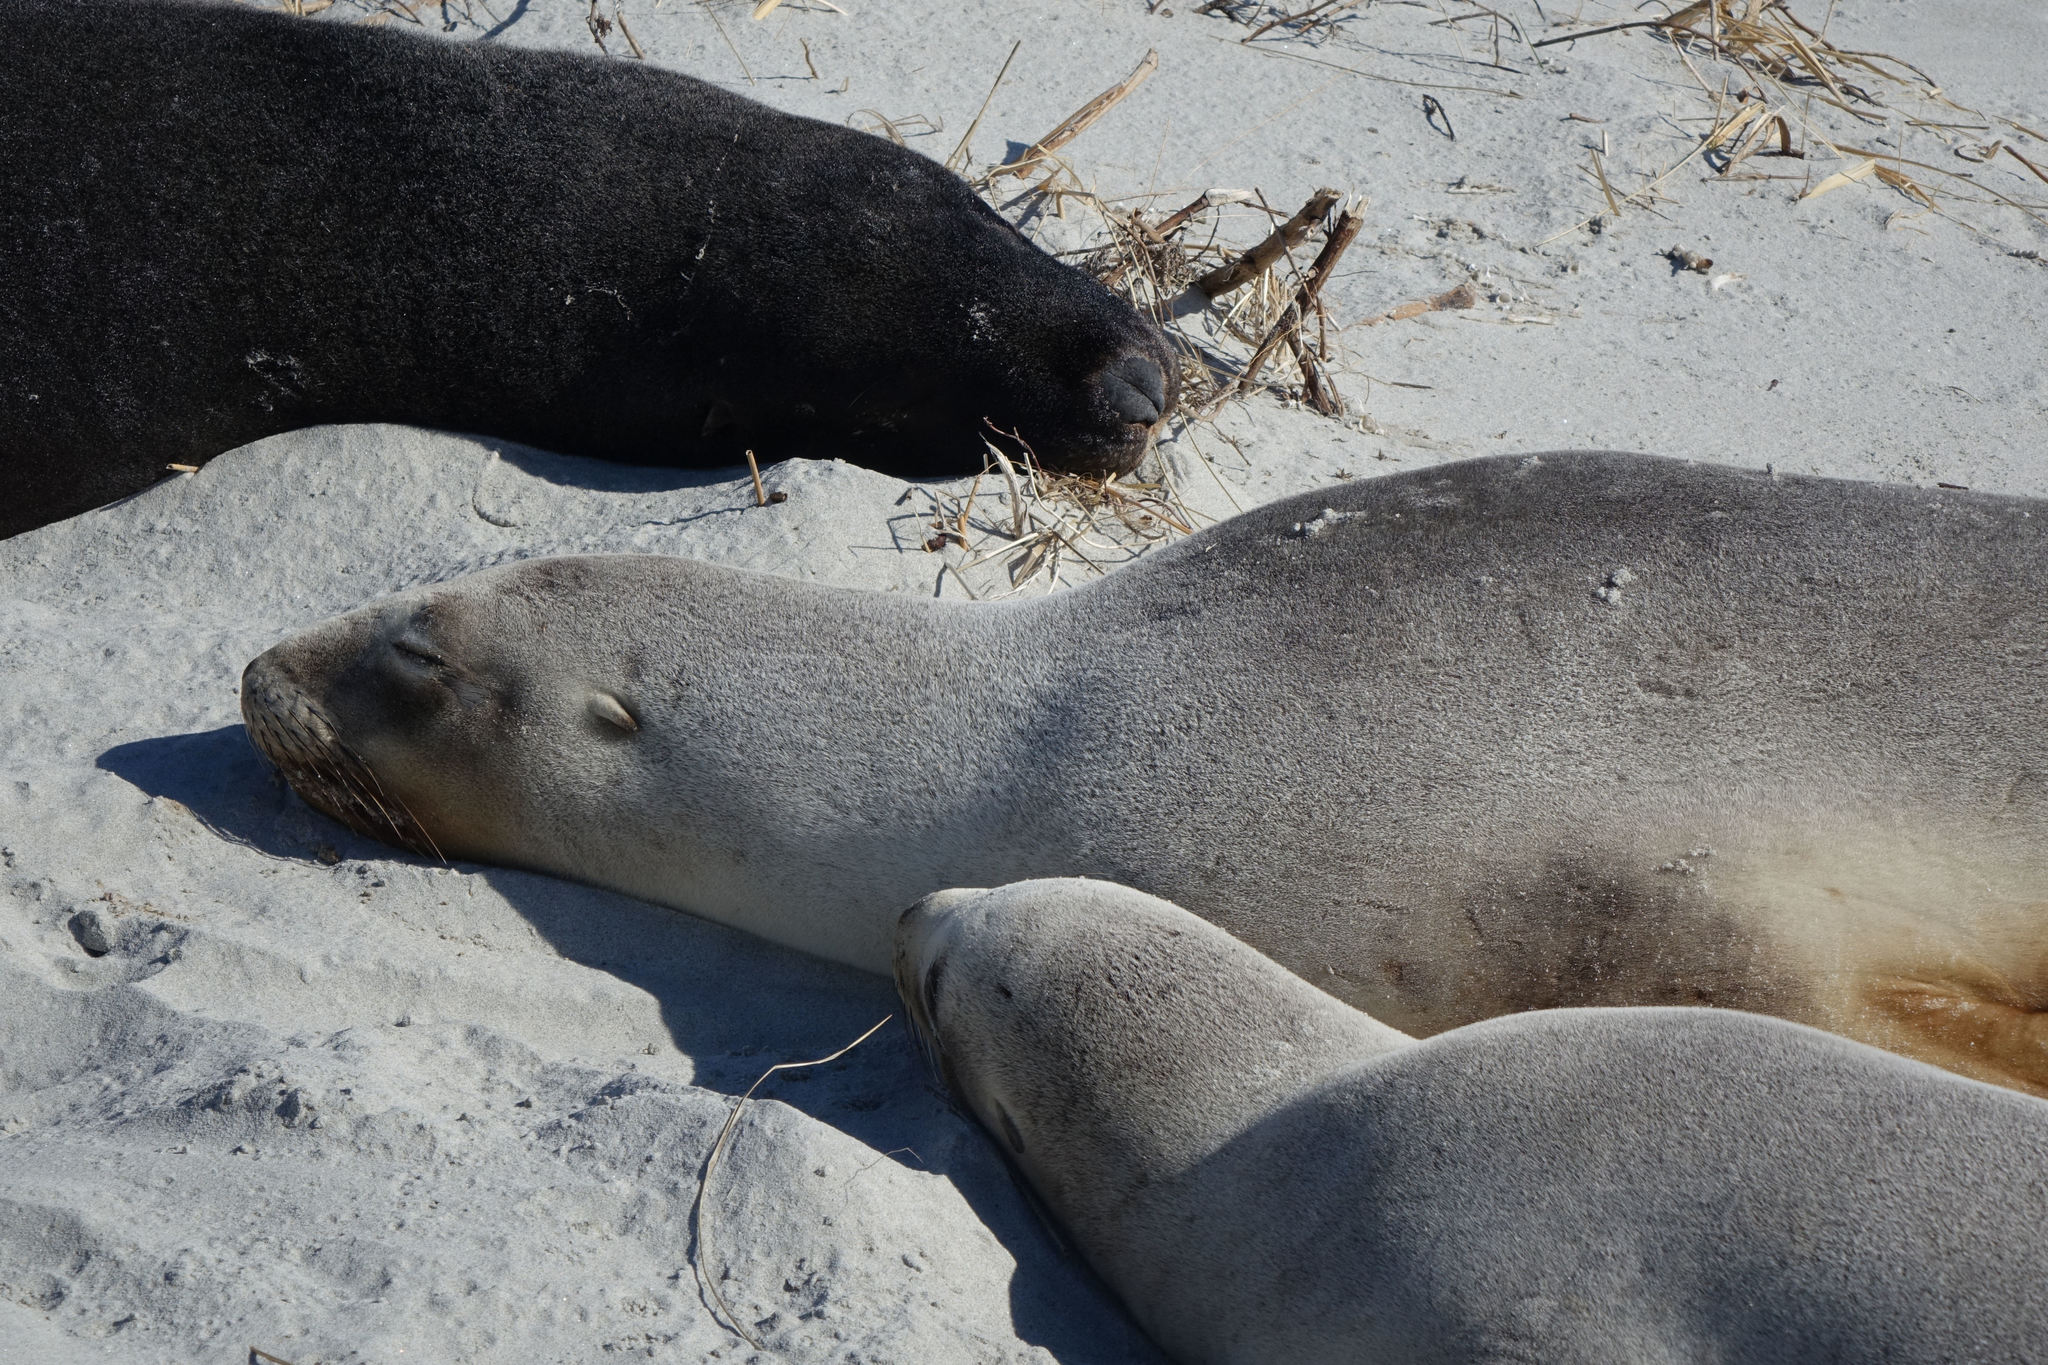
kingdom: Animalia
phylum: Chordata
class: Mammalia
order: Carnivora
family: Otariidae
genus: Phocarctos
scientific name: Phocarctos hookeri
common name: New zealand sea lion
